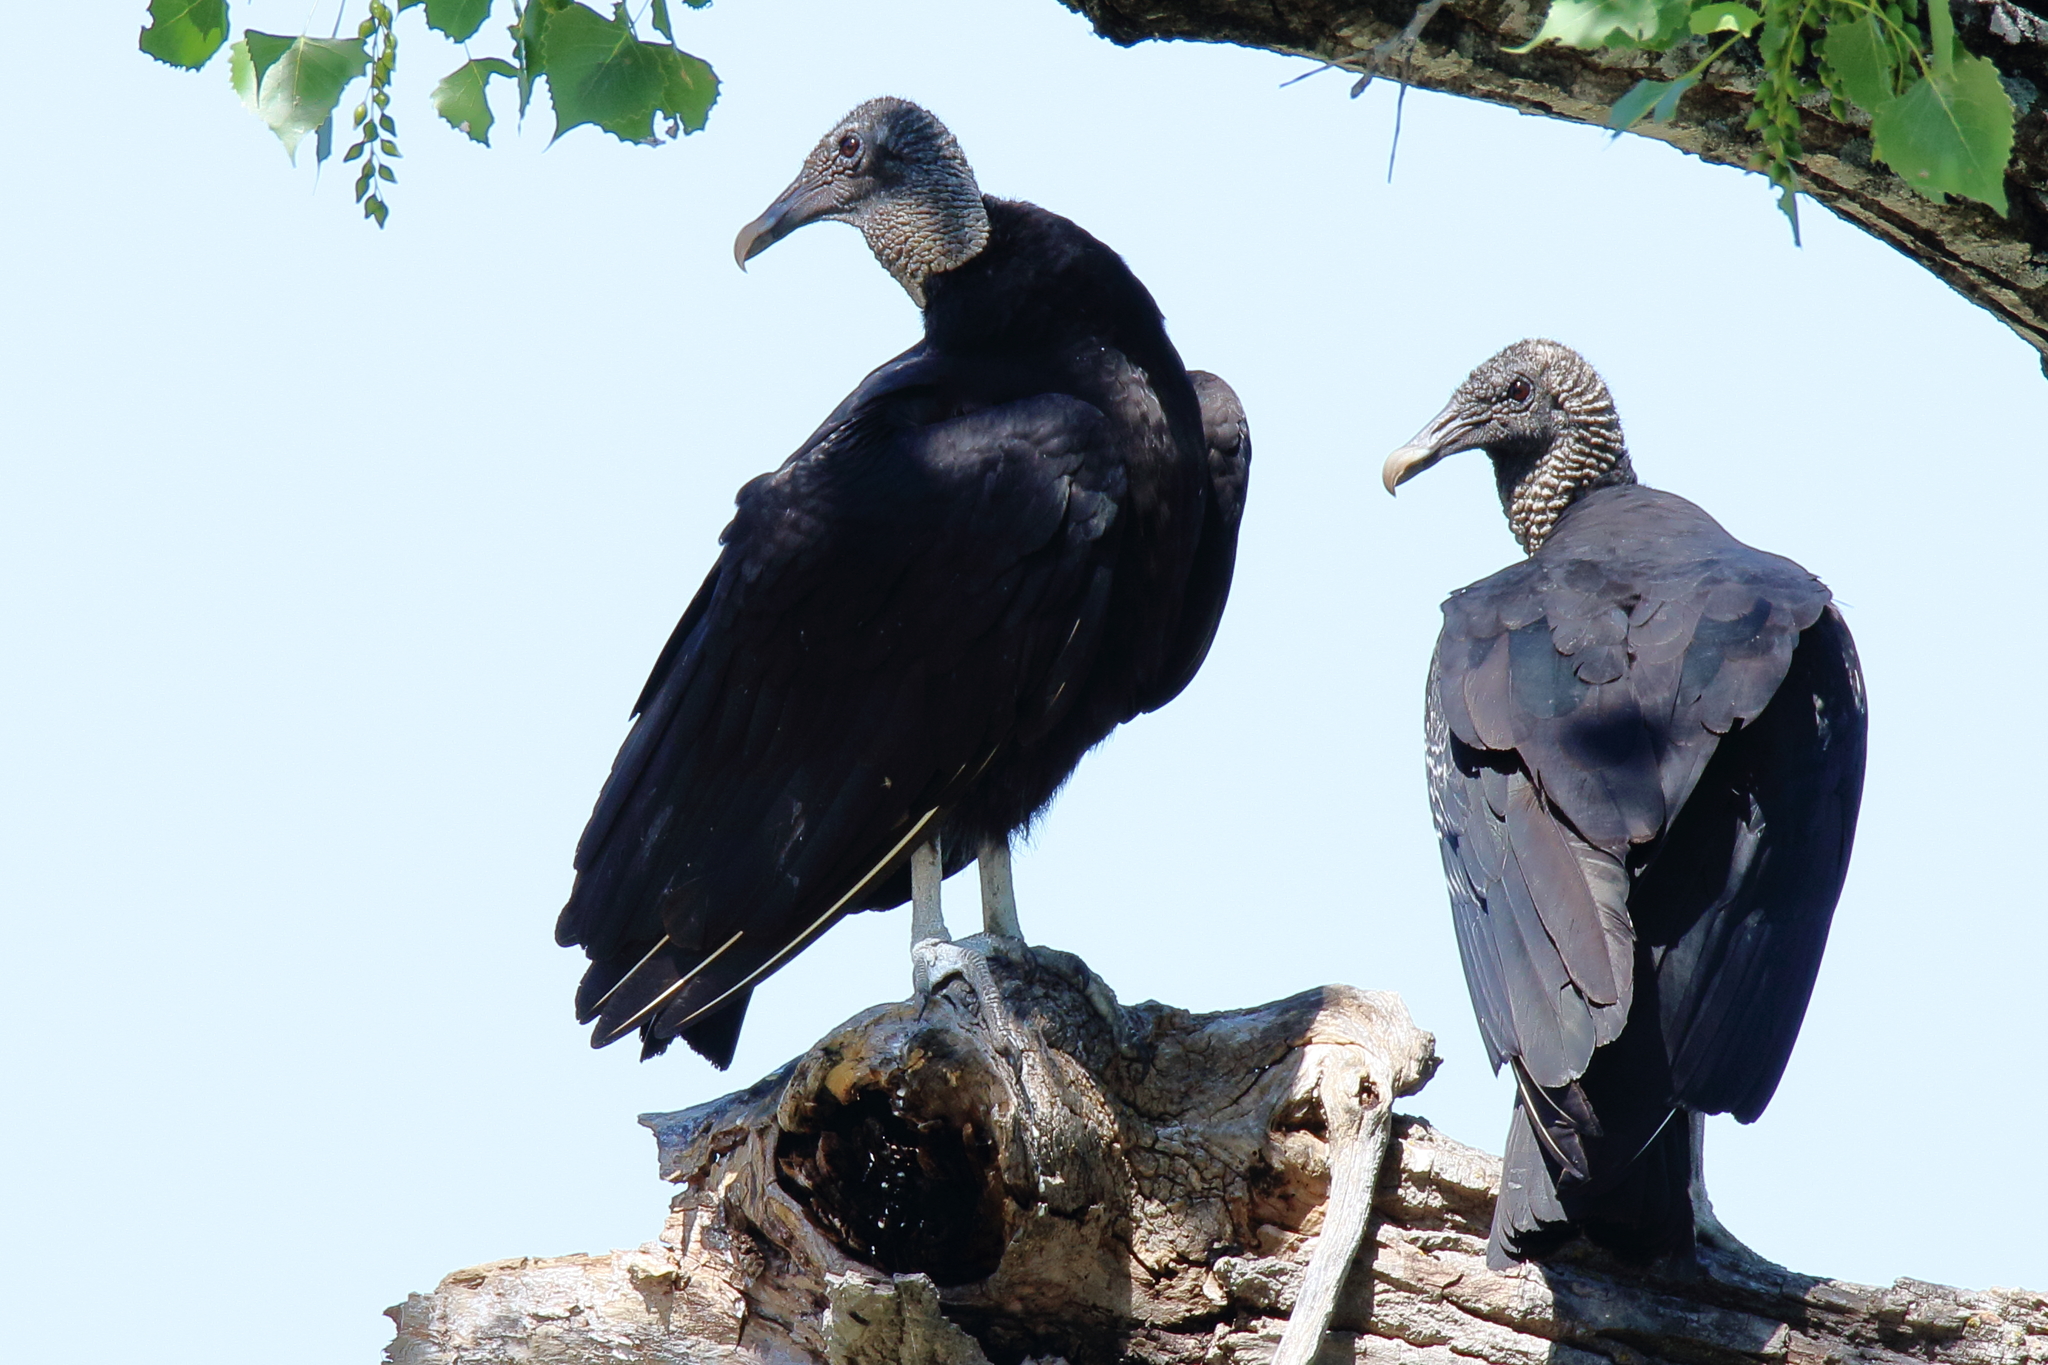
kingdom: Animalia
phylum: Chordata
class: Aves
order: Accipitriformes
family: Cathartidae
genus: Coragyps
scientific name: Coragyps atratus
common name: Black vulture
